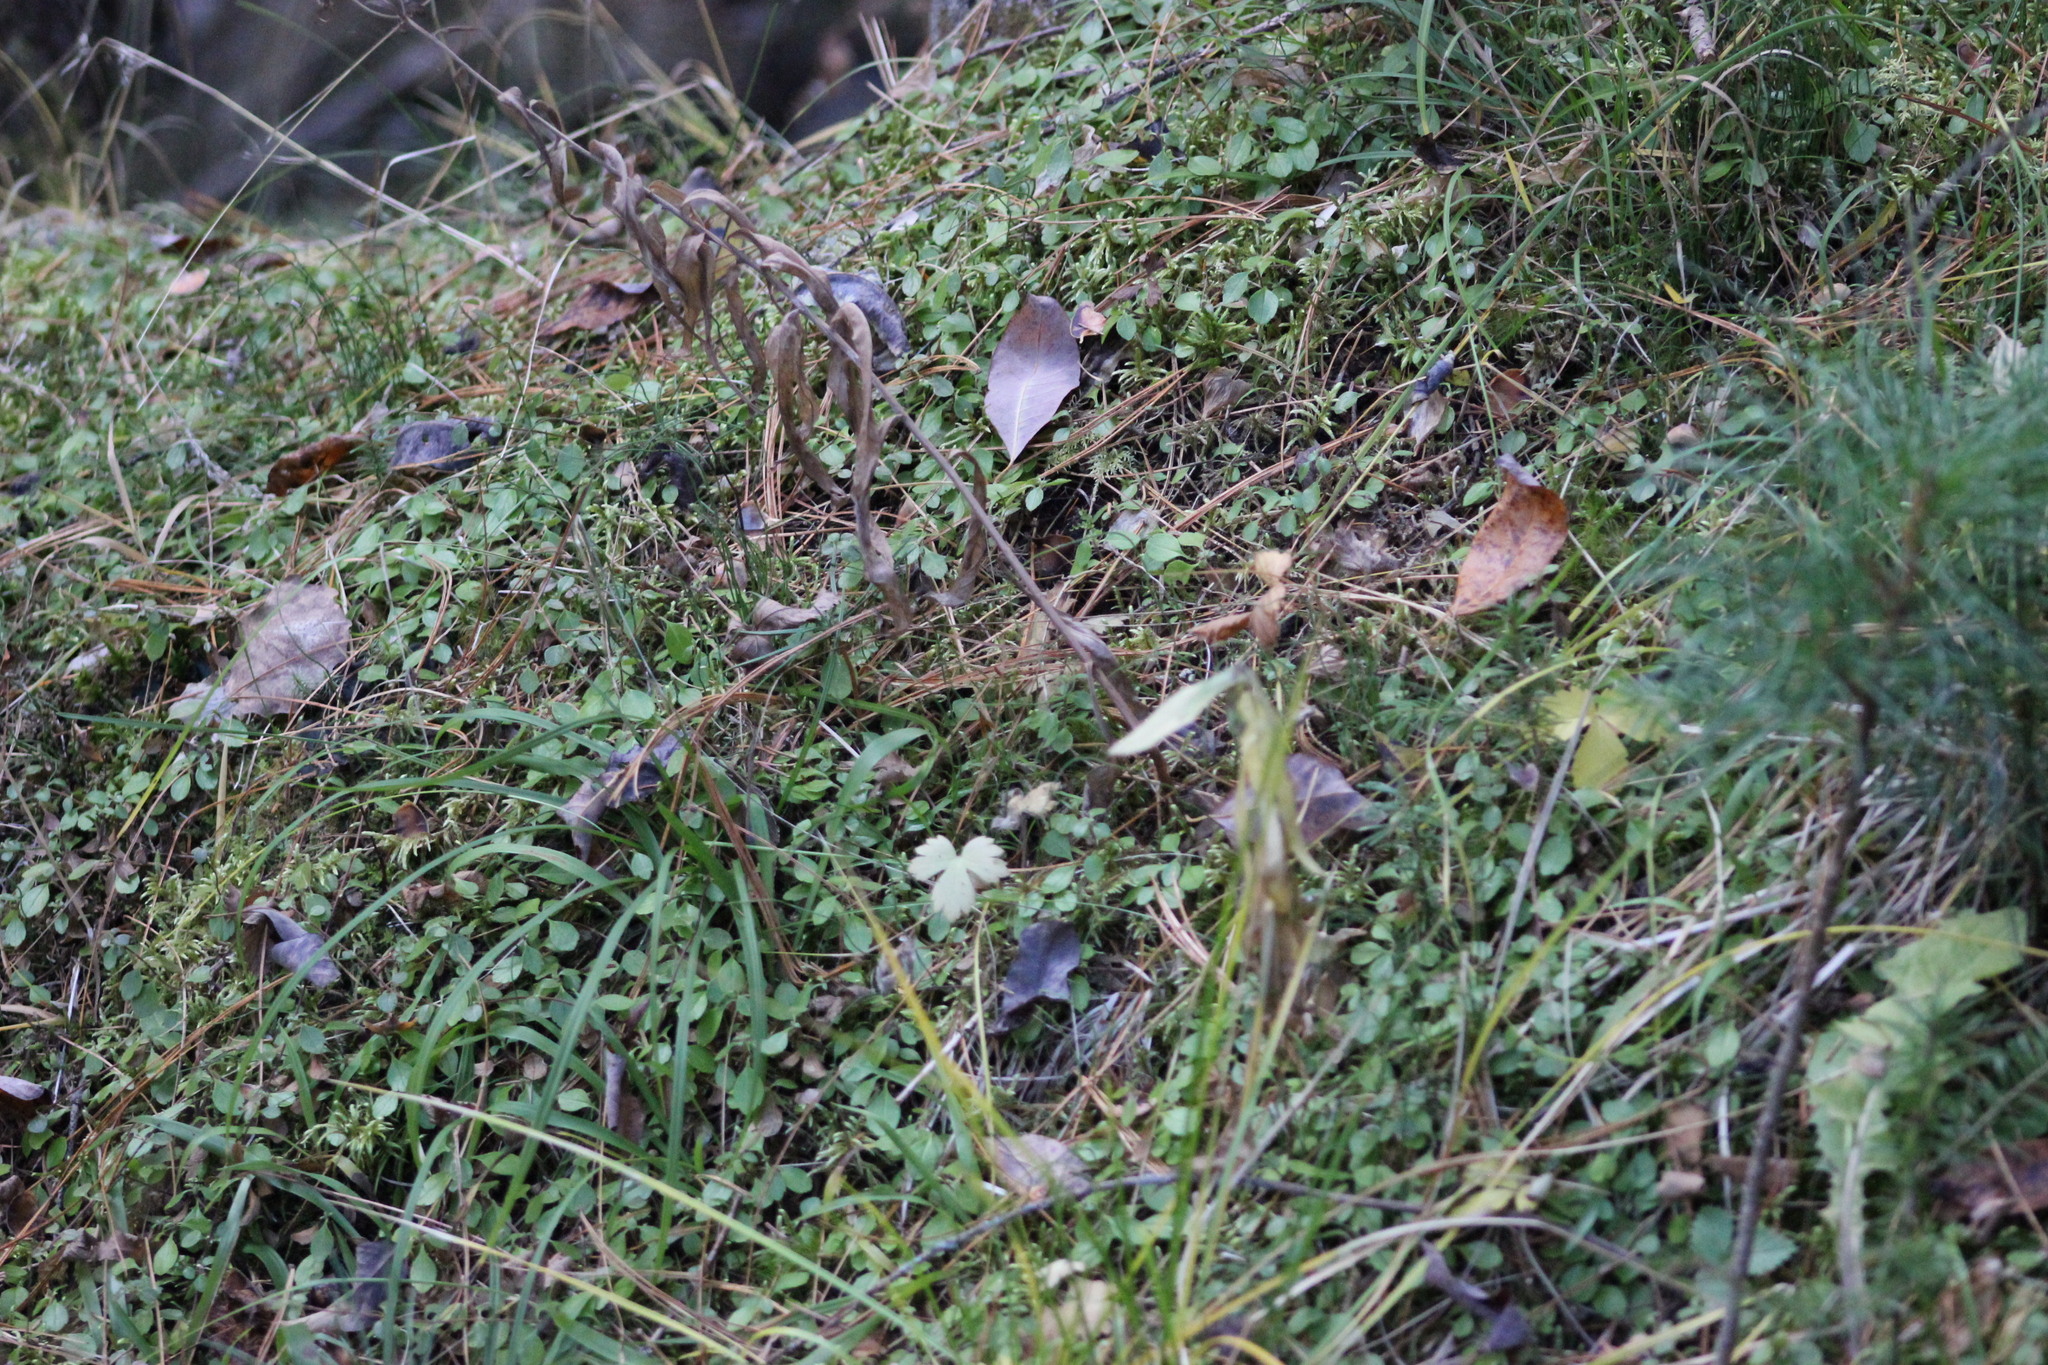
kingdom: Plantae
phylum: Tracheophyta
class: Magnoliopsida
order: Dipsacales
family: Caprifoliaceae
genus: Linnaea
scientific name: Linnaea borealis
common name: Twinflower
